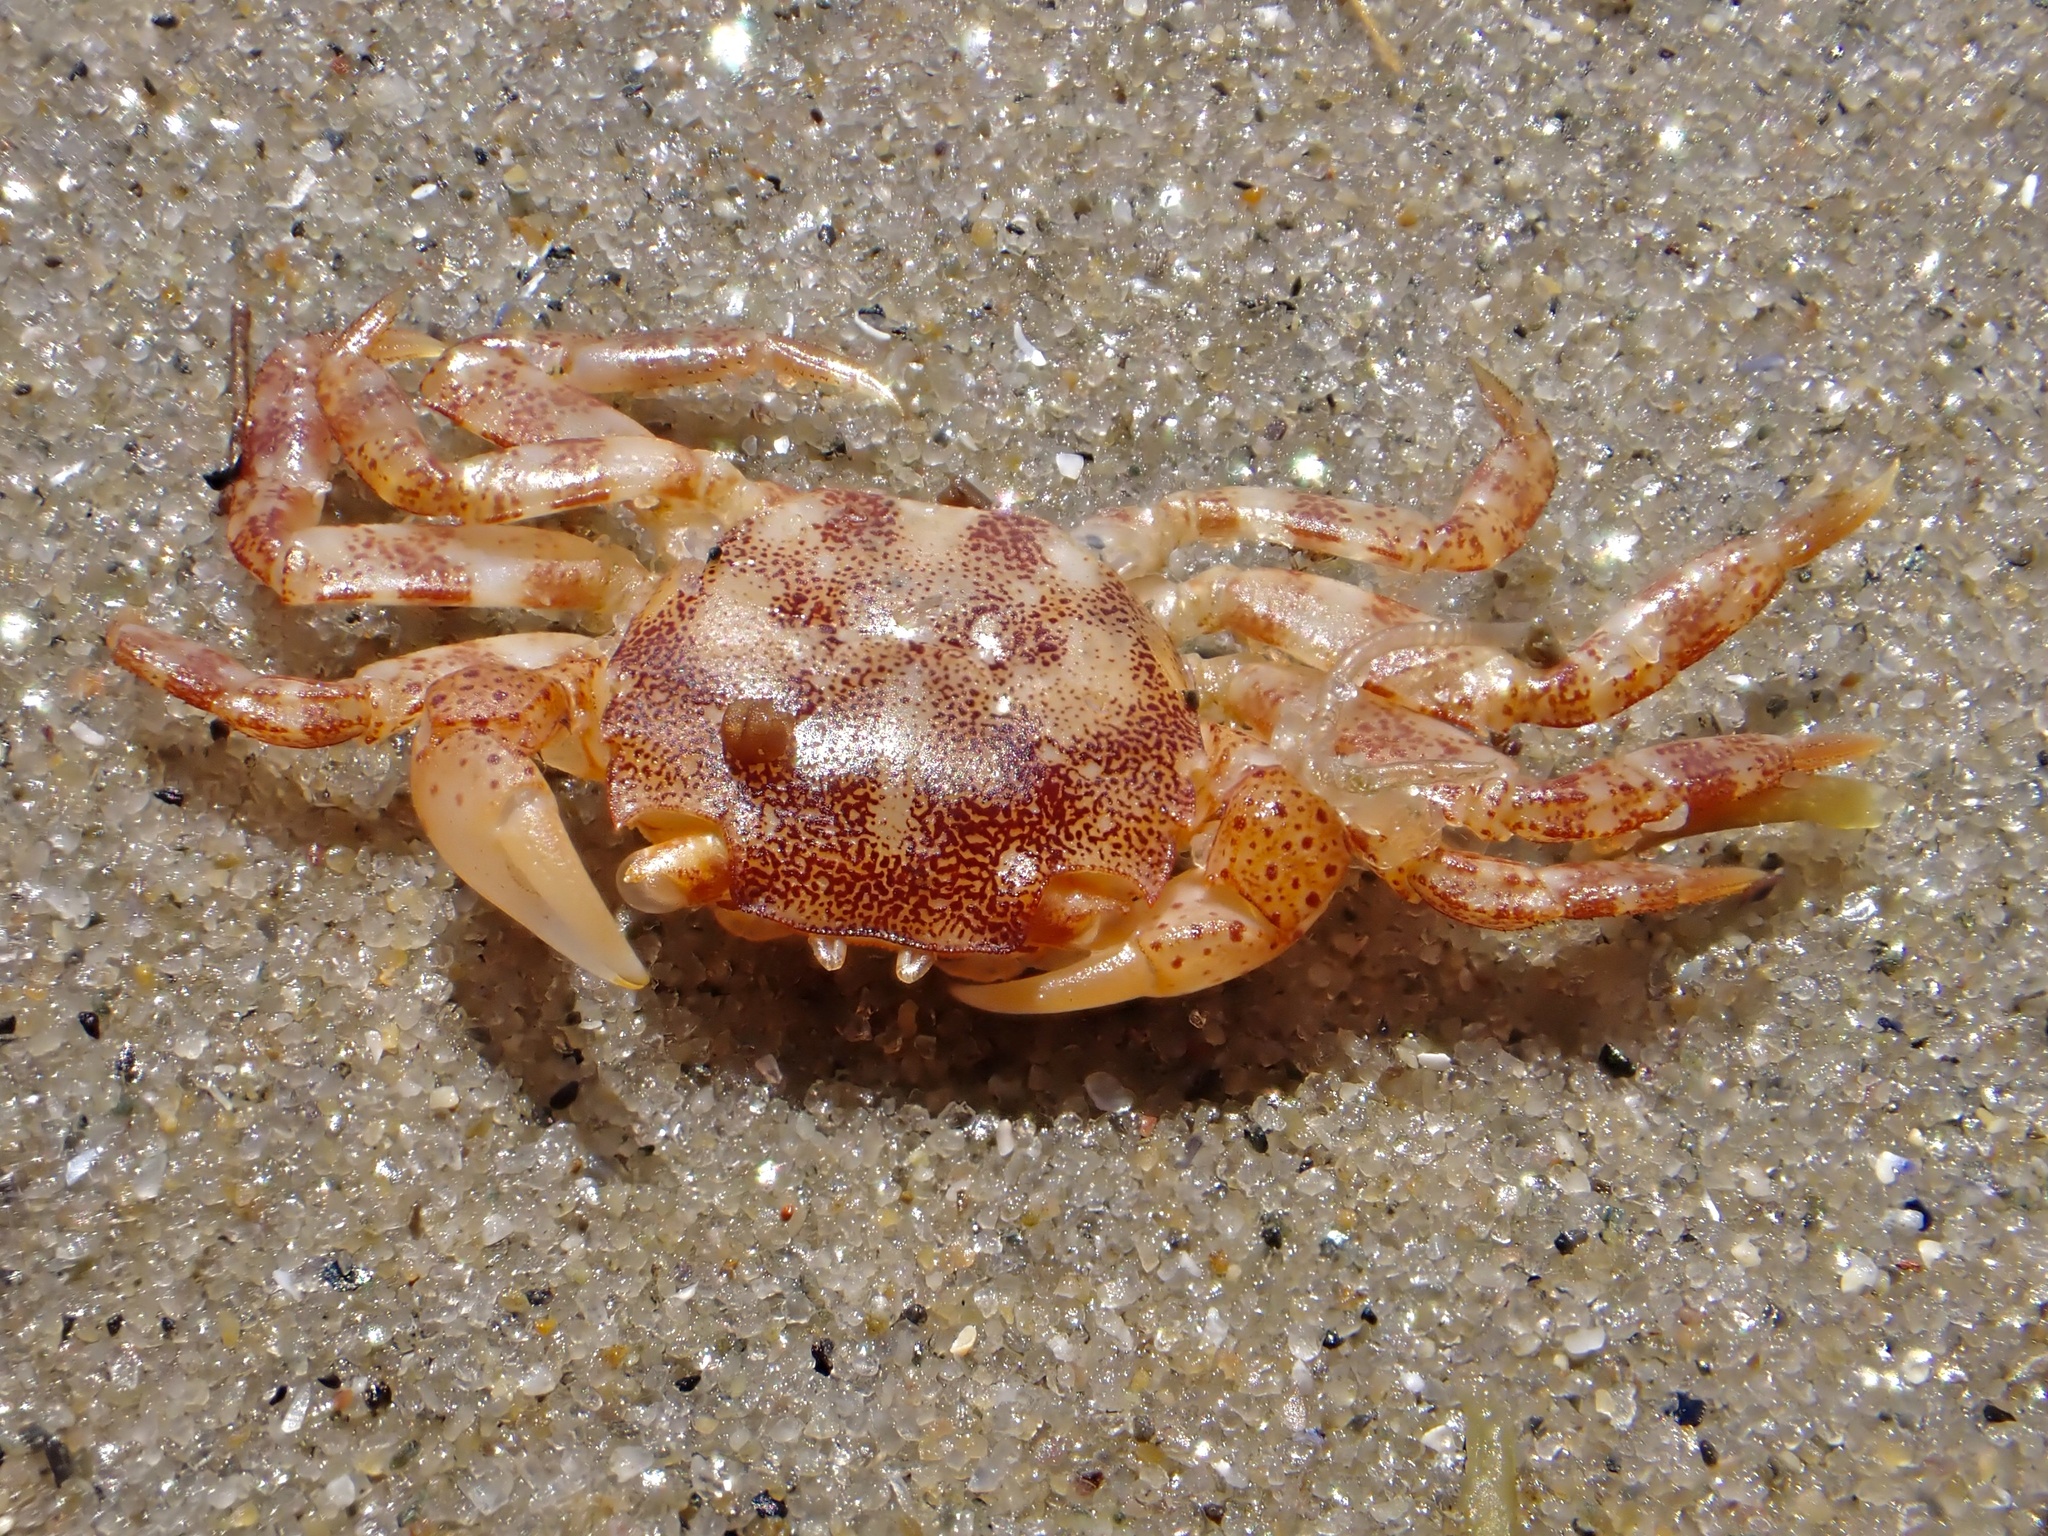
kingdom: Animalia
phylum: Arthropoda
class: Malacostraca
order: Decapoda
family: Varunidae
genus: Hemigrapsus
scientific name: Hemigrapsus sanguineus
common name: Asian shore crab
